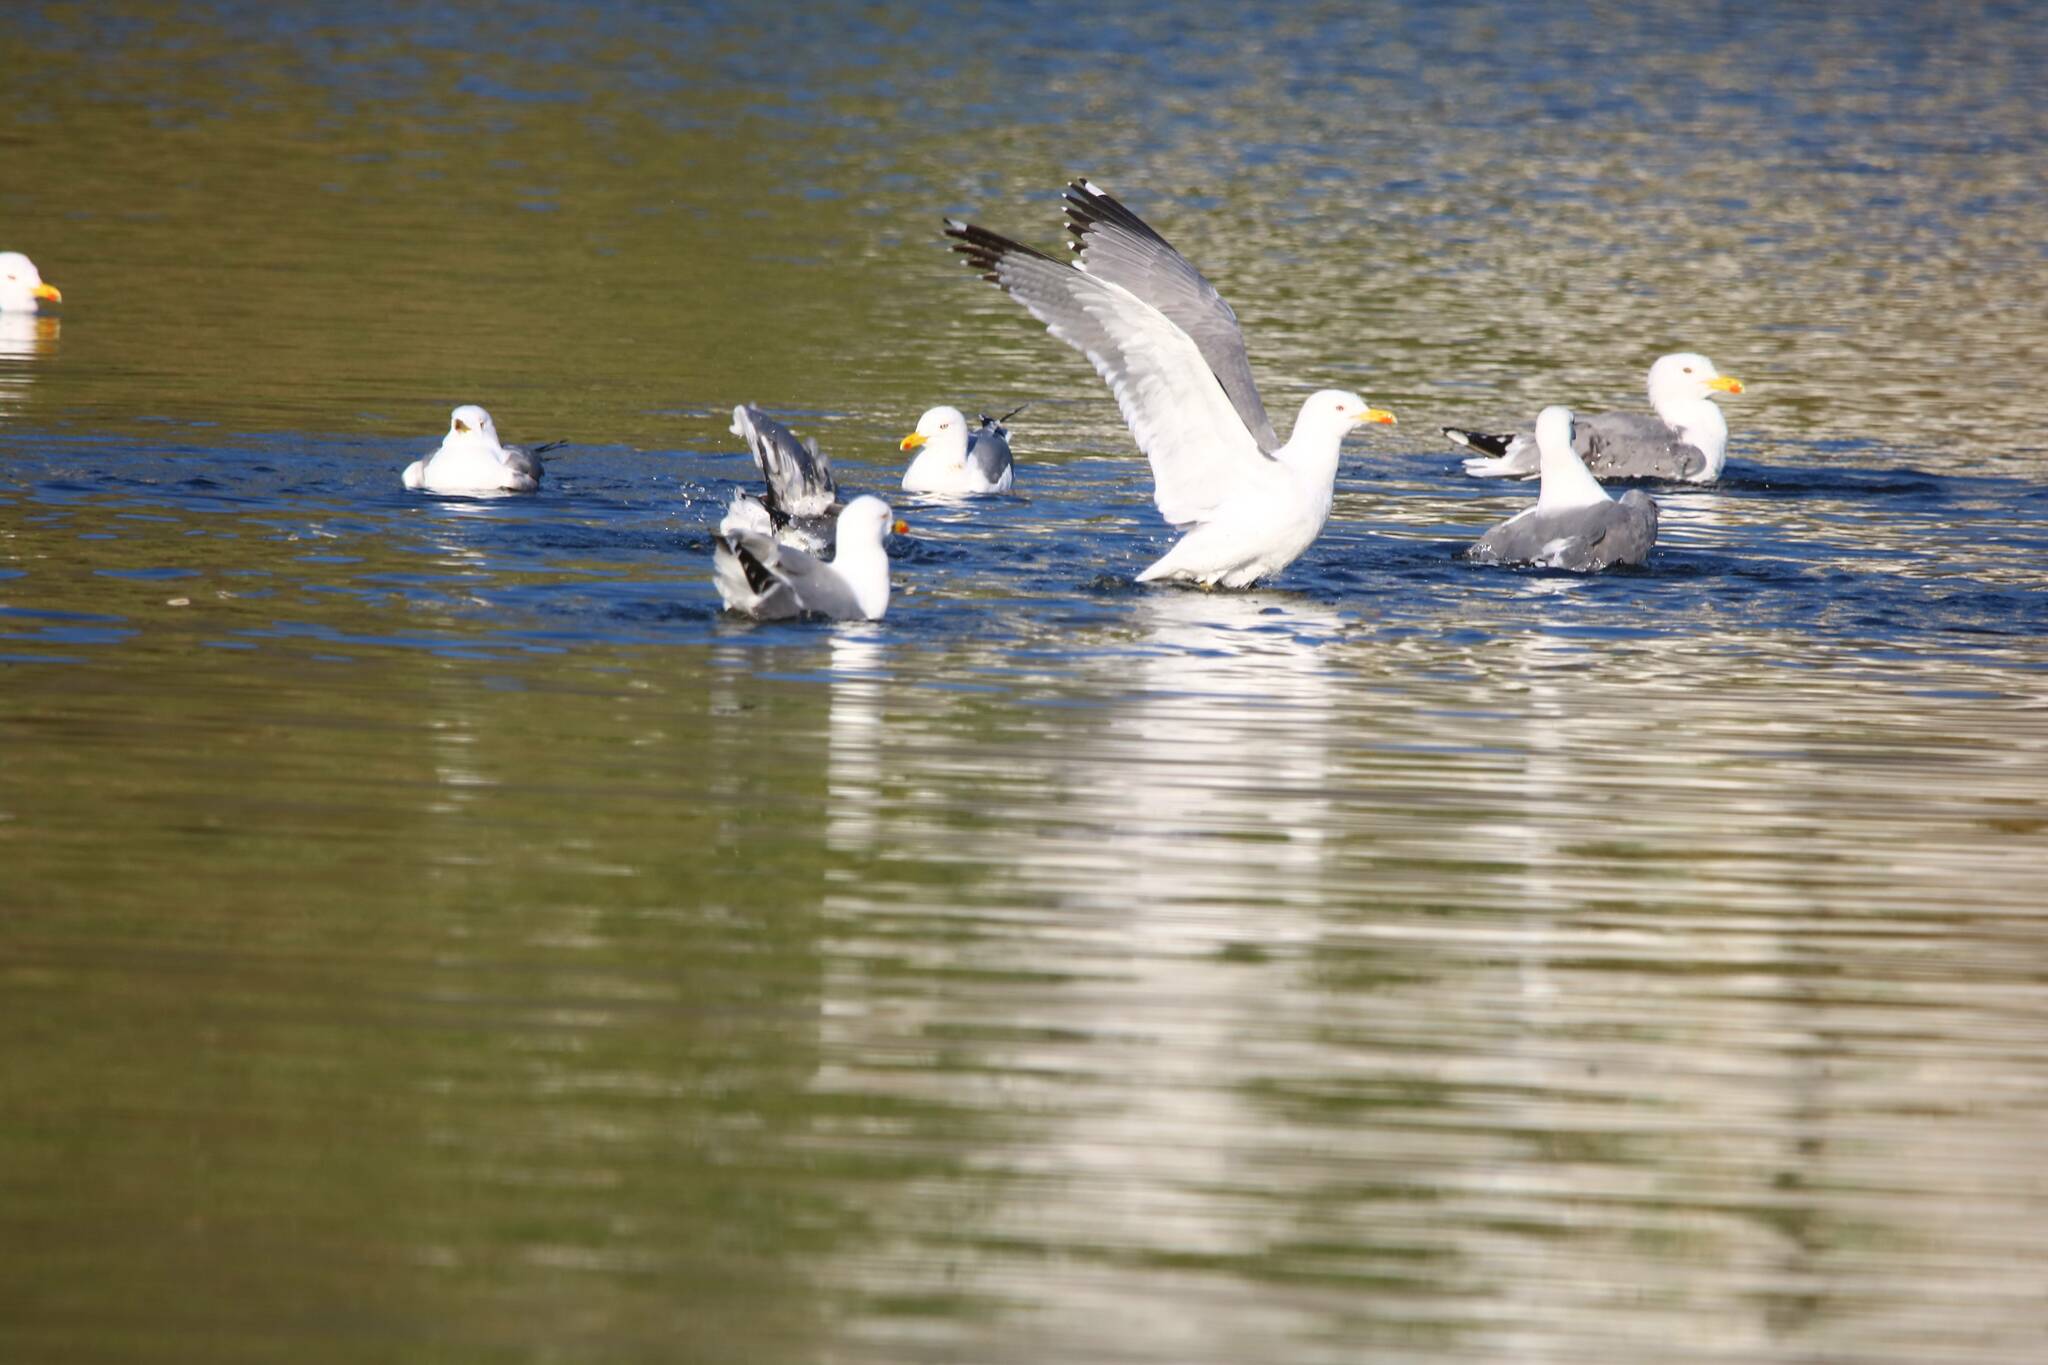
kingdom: Animalia
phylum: Chordata
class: Aves
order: Charadriiformes
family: Laridae
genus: Larus
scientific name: Larus michahellis
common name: Yellow-legged gull
